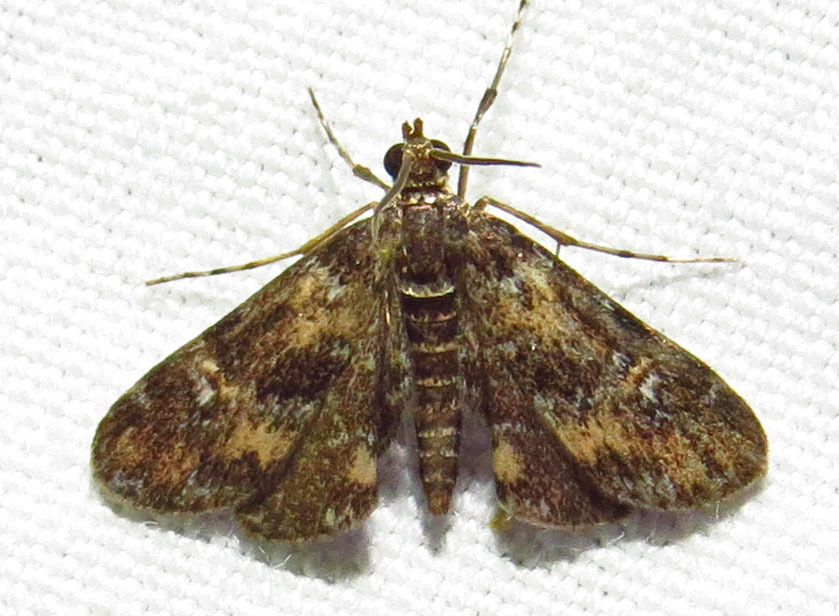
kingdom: Animalia
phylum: Arthropoda
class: Insecta
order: Lepidoptera
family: Crambidae
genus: Elophila
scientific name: Elophila obliteralis
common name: Waterlily leafcutter moth
